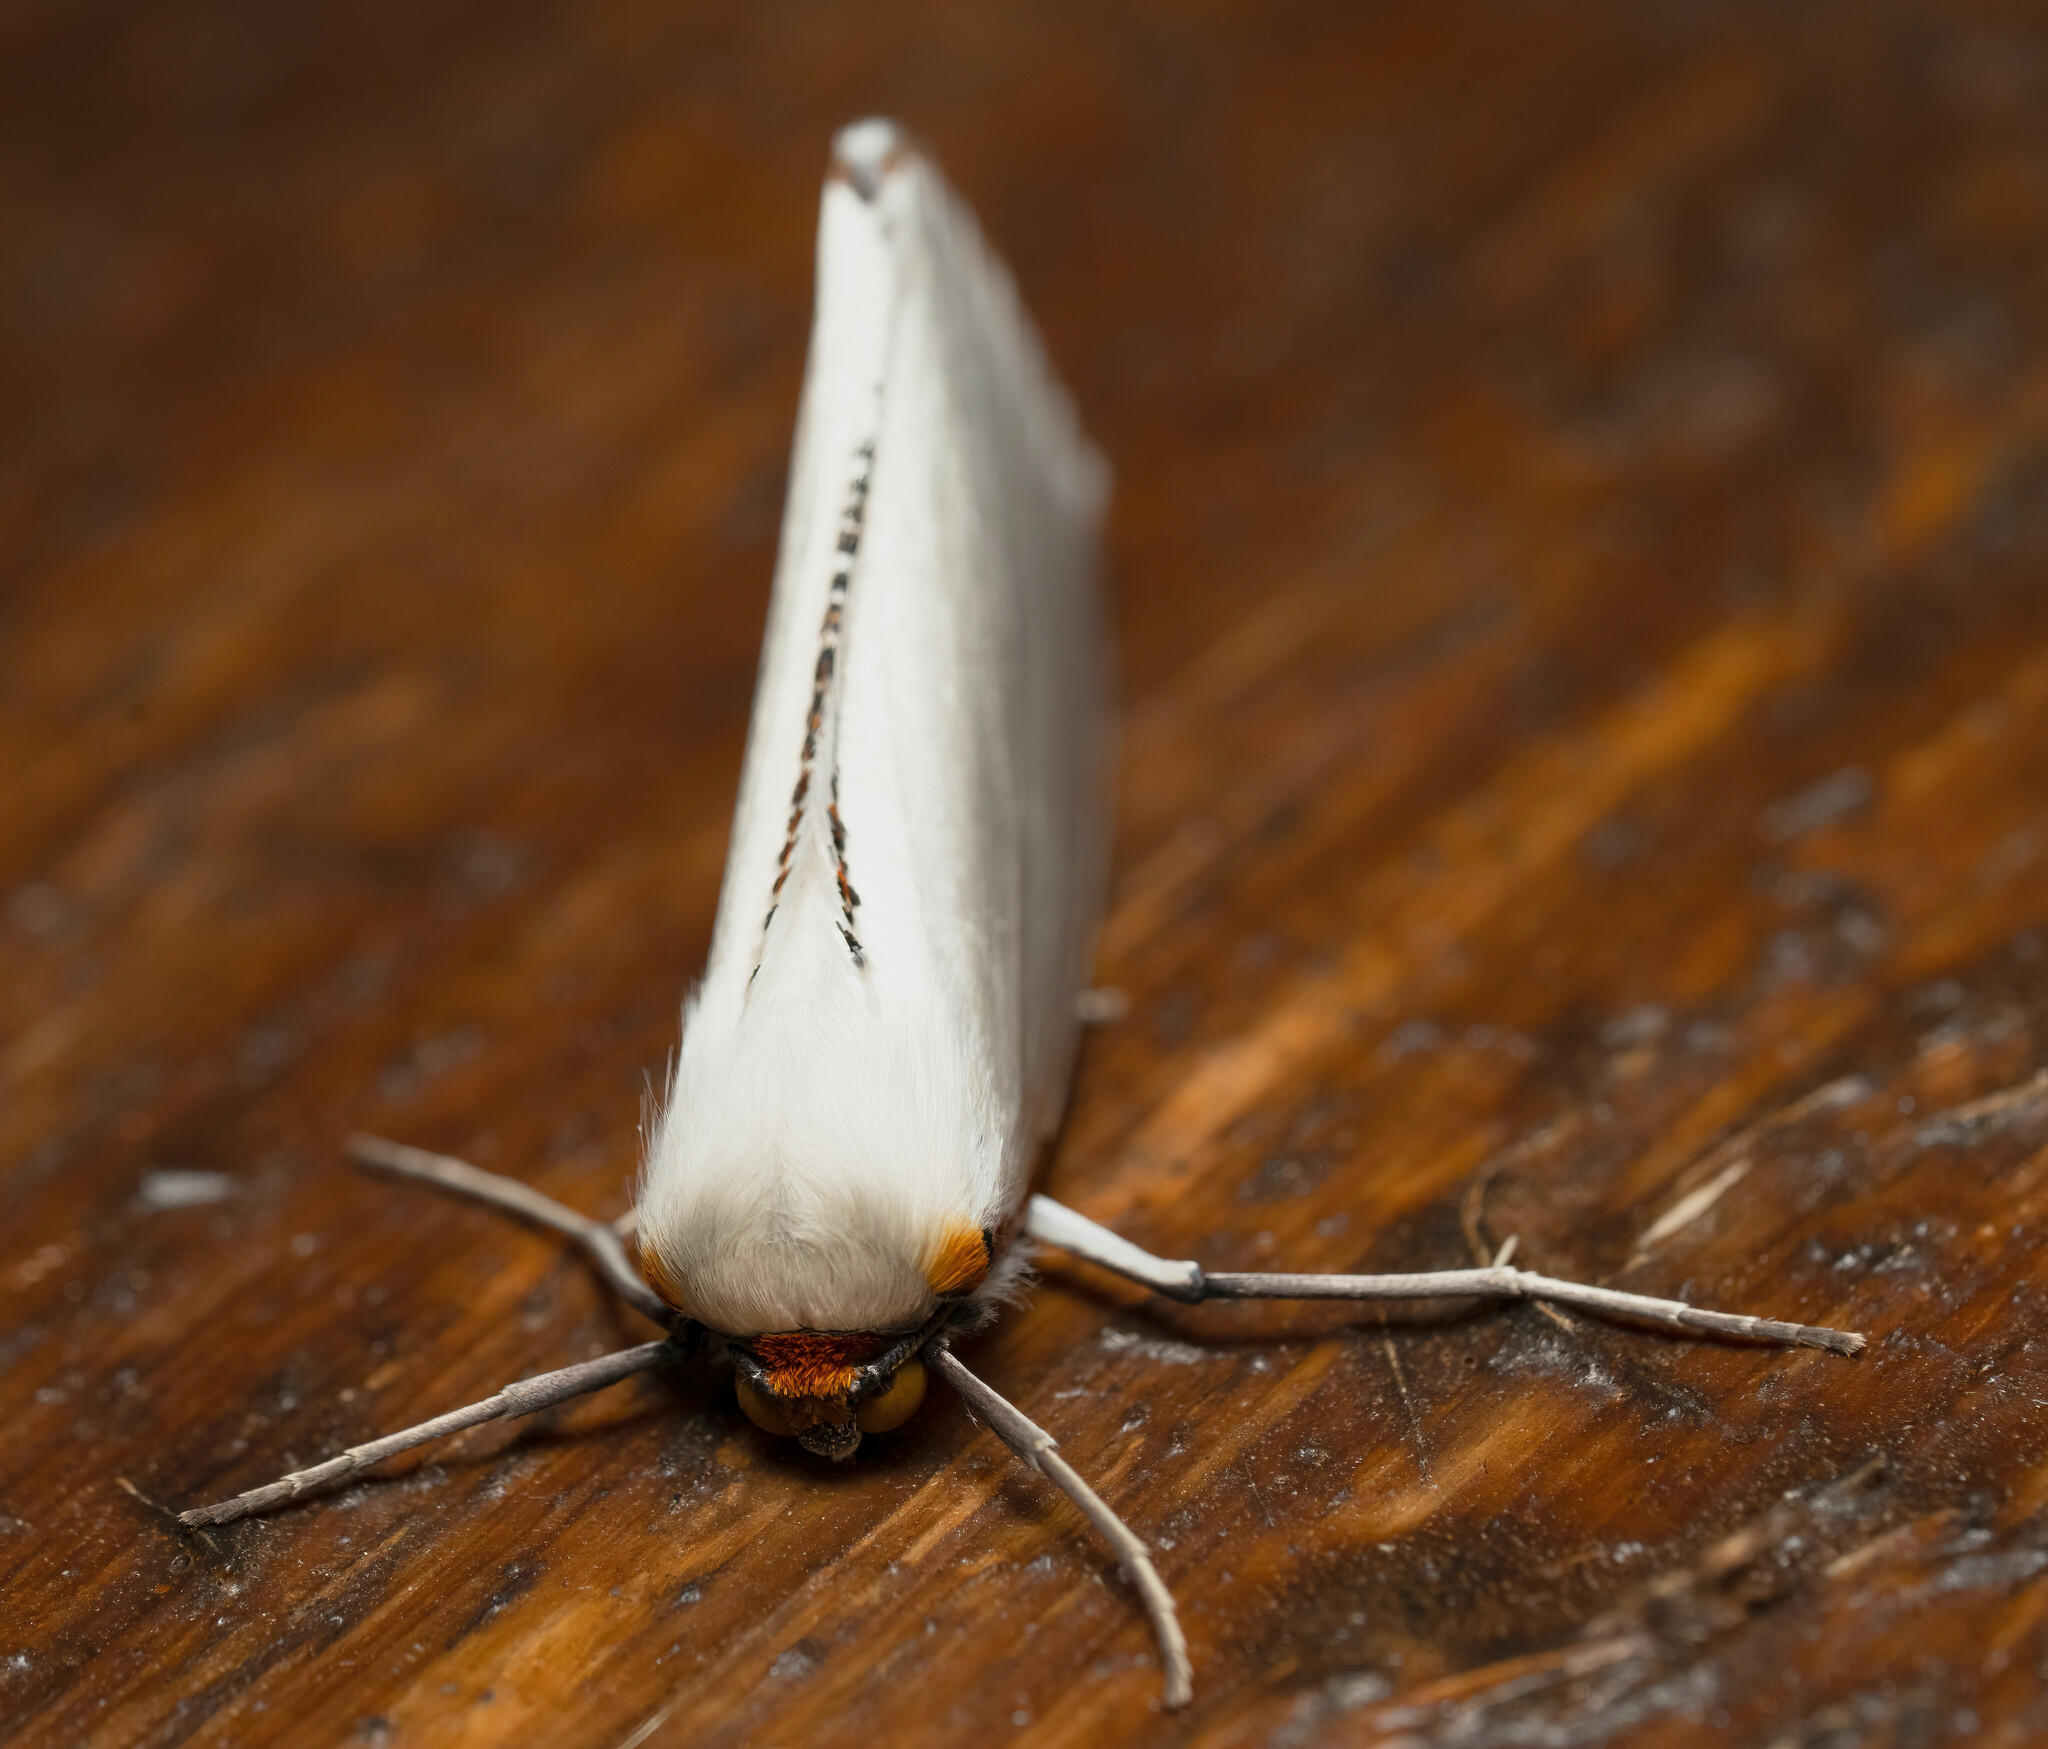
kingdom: Animalia
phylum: Arthropoda
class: Insecta
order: Lepidoptera
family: Geometridae
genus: Thalaina
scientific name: Thalaina selenaea
